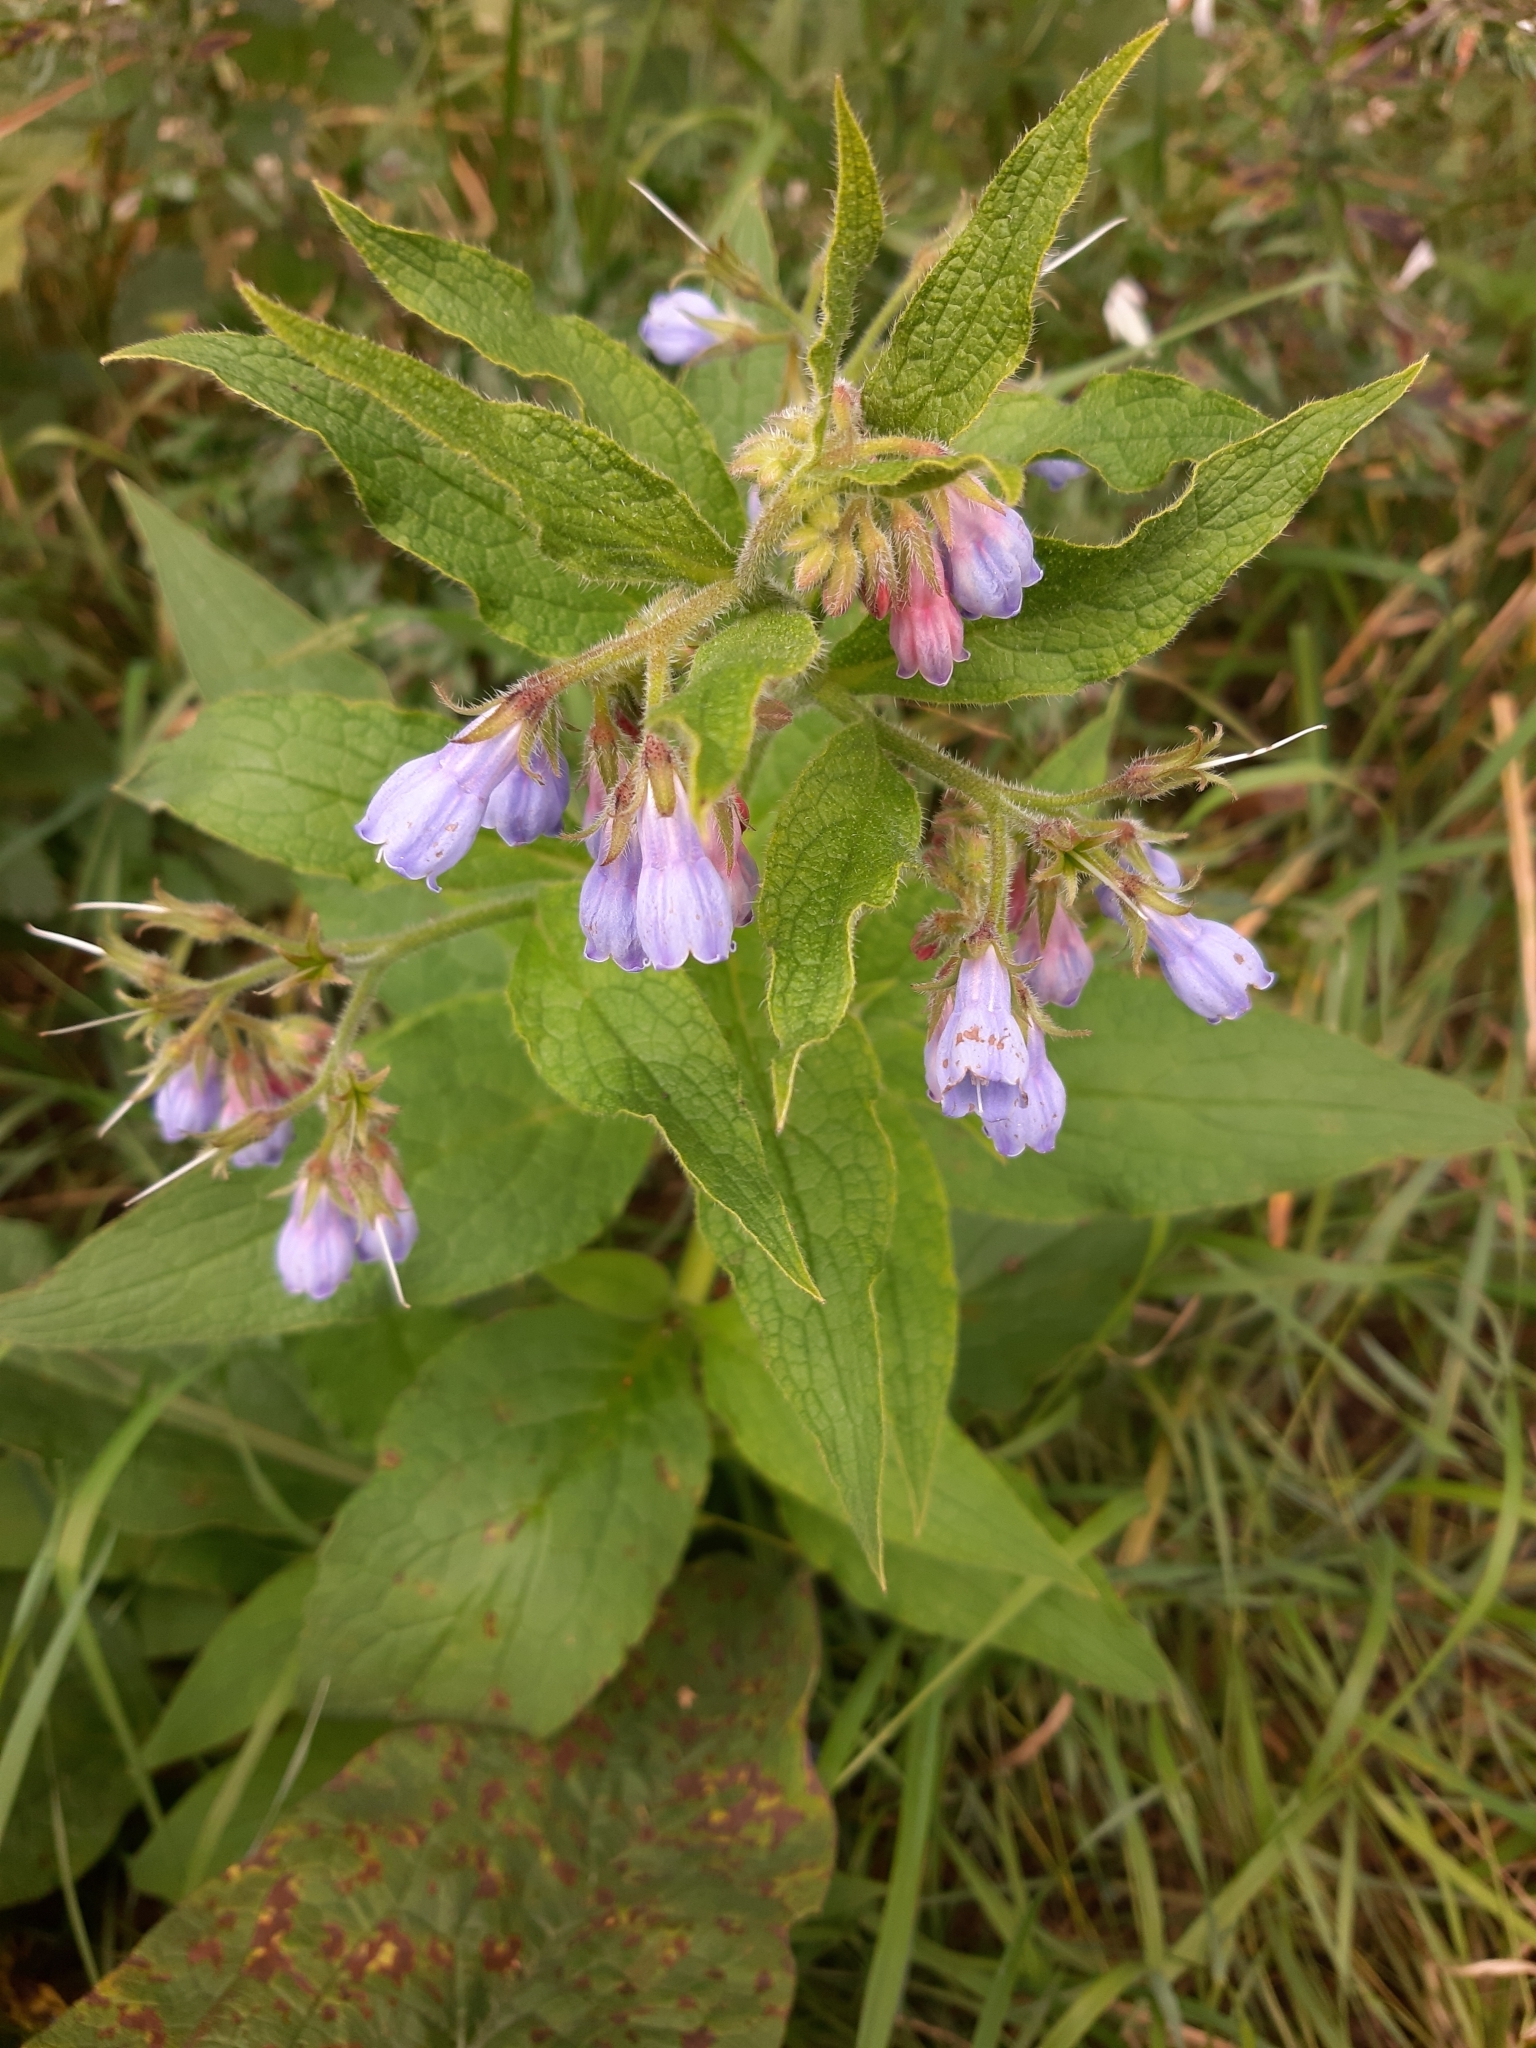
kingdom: Plantae
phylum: Tracheophyta
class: Magnoliopsida
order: Boraginales
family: Boraginaceae
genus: Symphytum
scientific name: Symphytum uplandicum
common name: Russian comfrey
